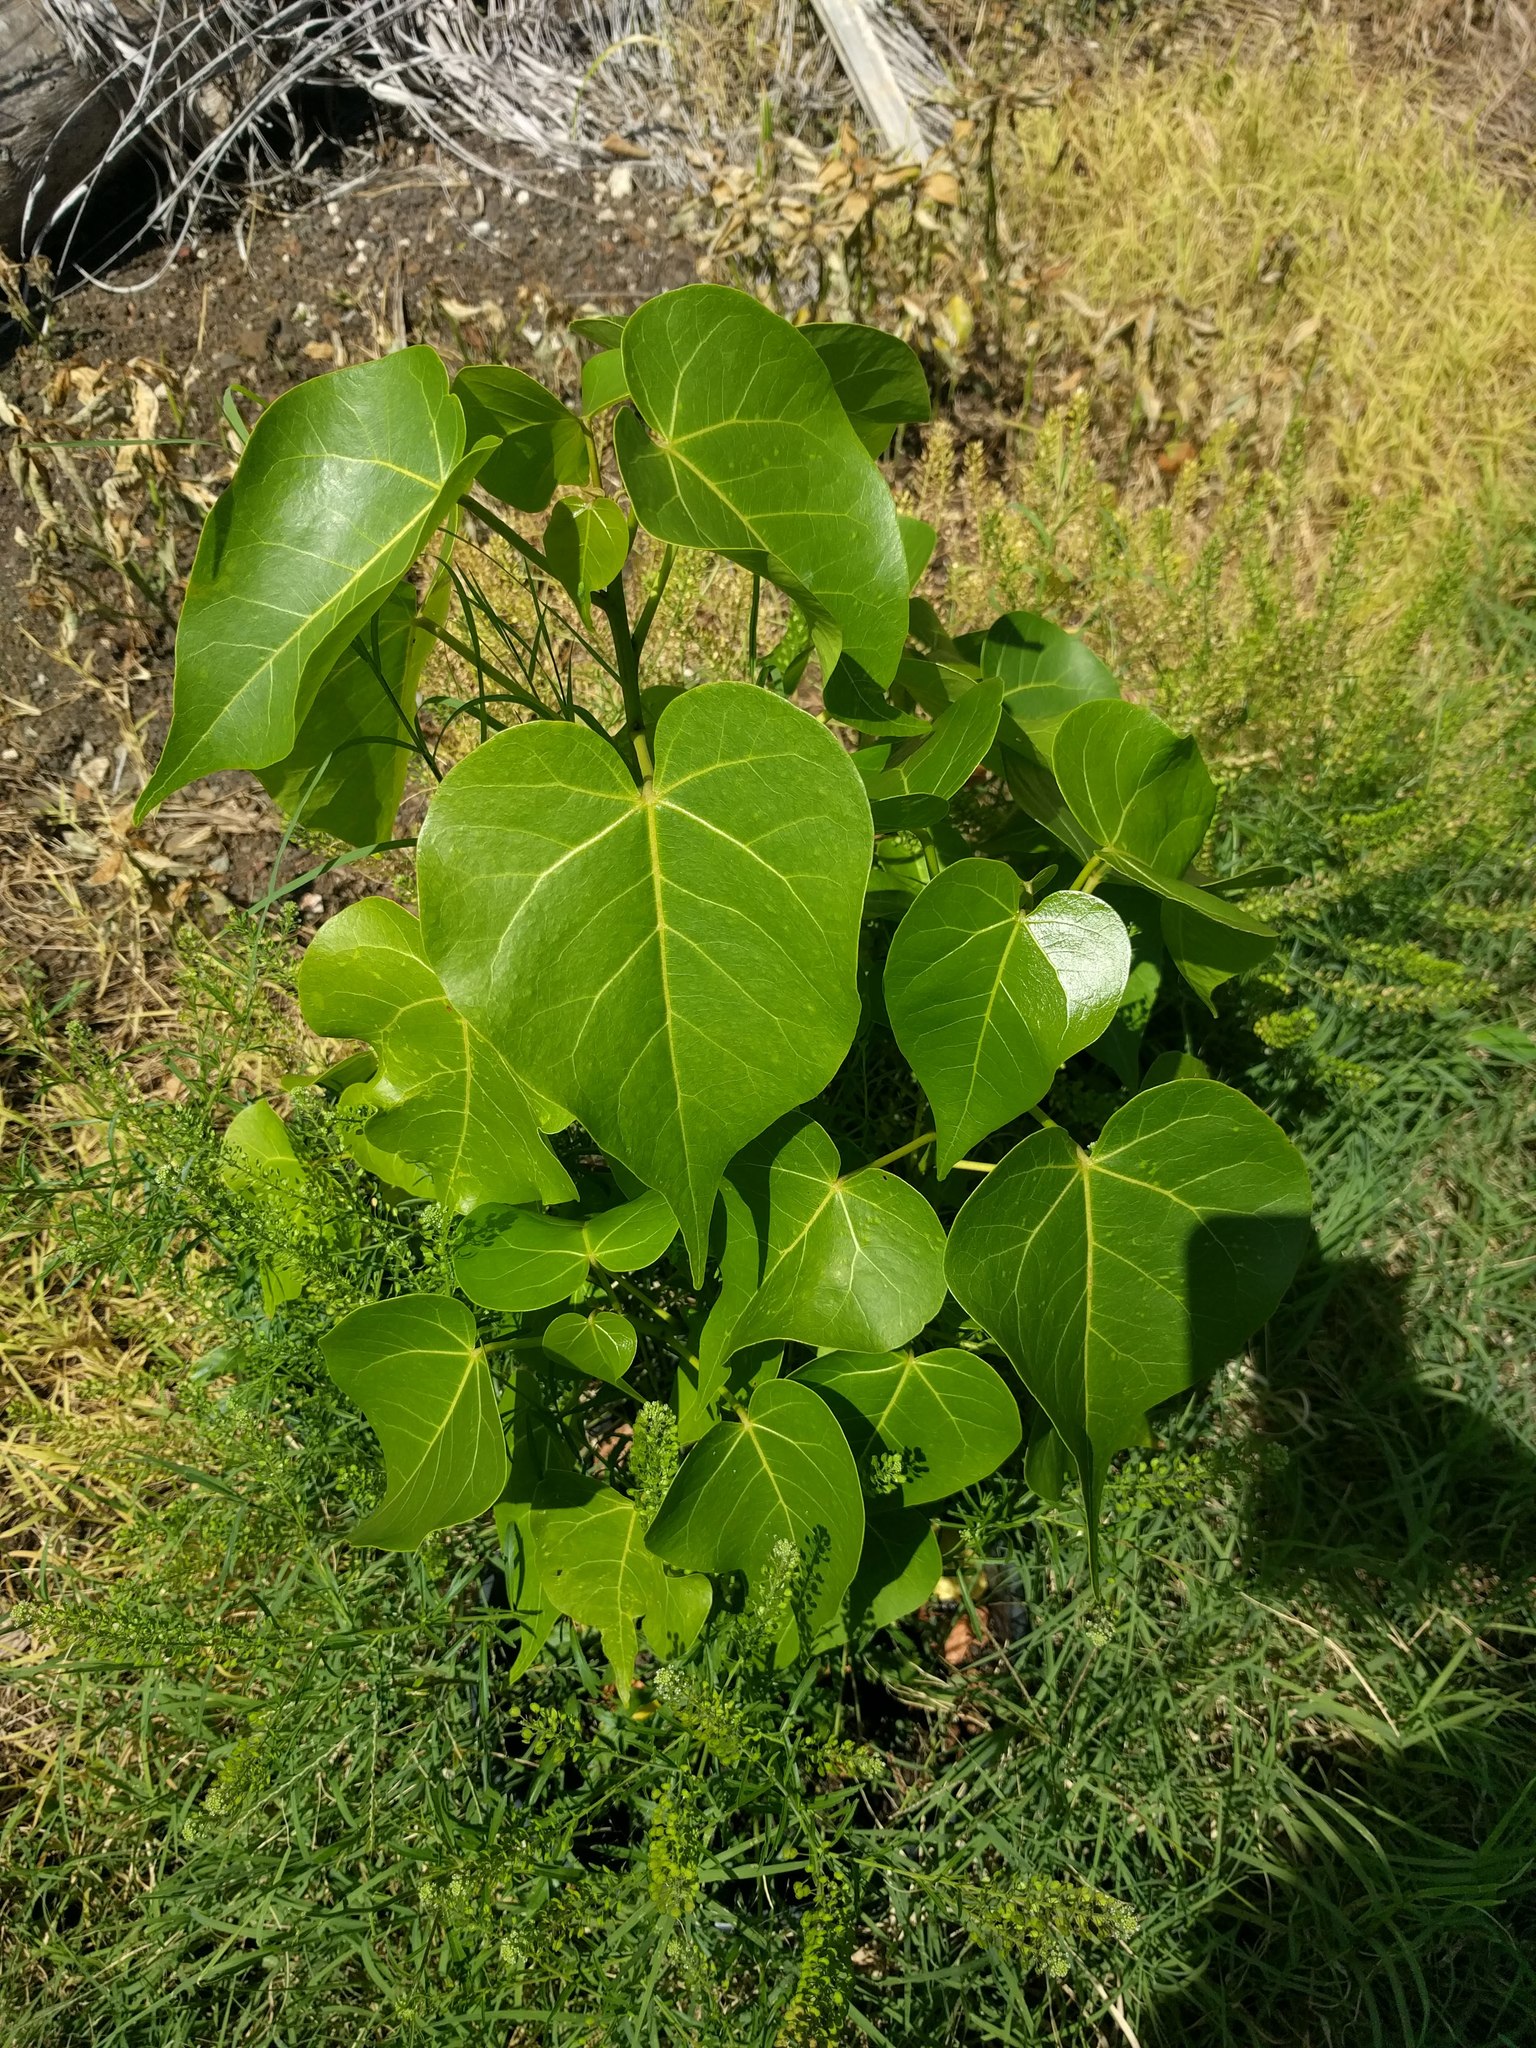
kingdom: Plantae
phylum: Tracheophyta
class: Magnoliopsida
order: Malvales
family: Malvaceae
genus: Thespesia
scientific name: Thespesia populnea
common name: Seaside mahoe
